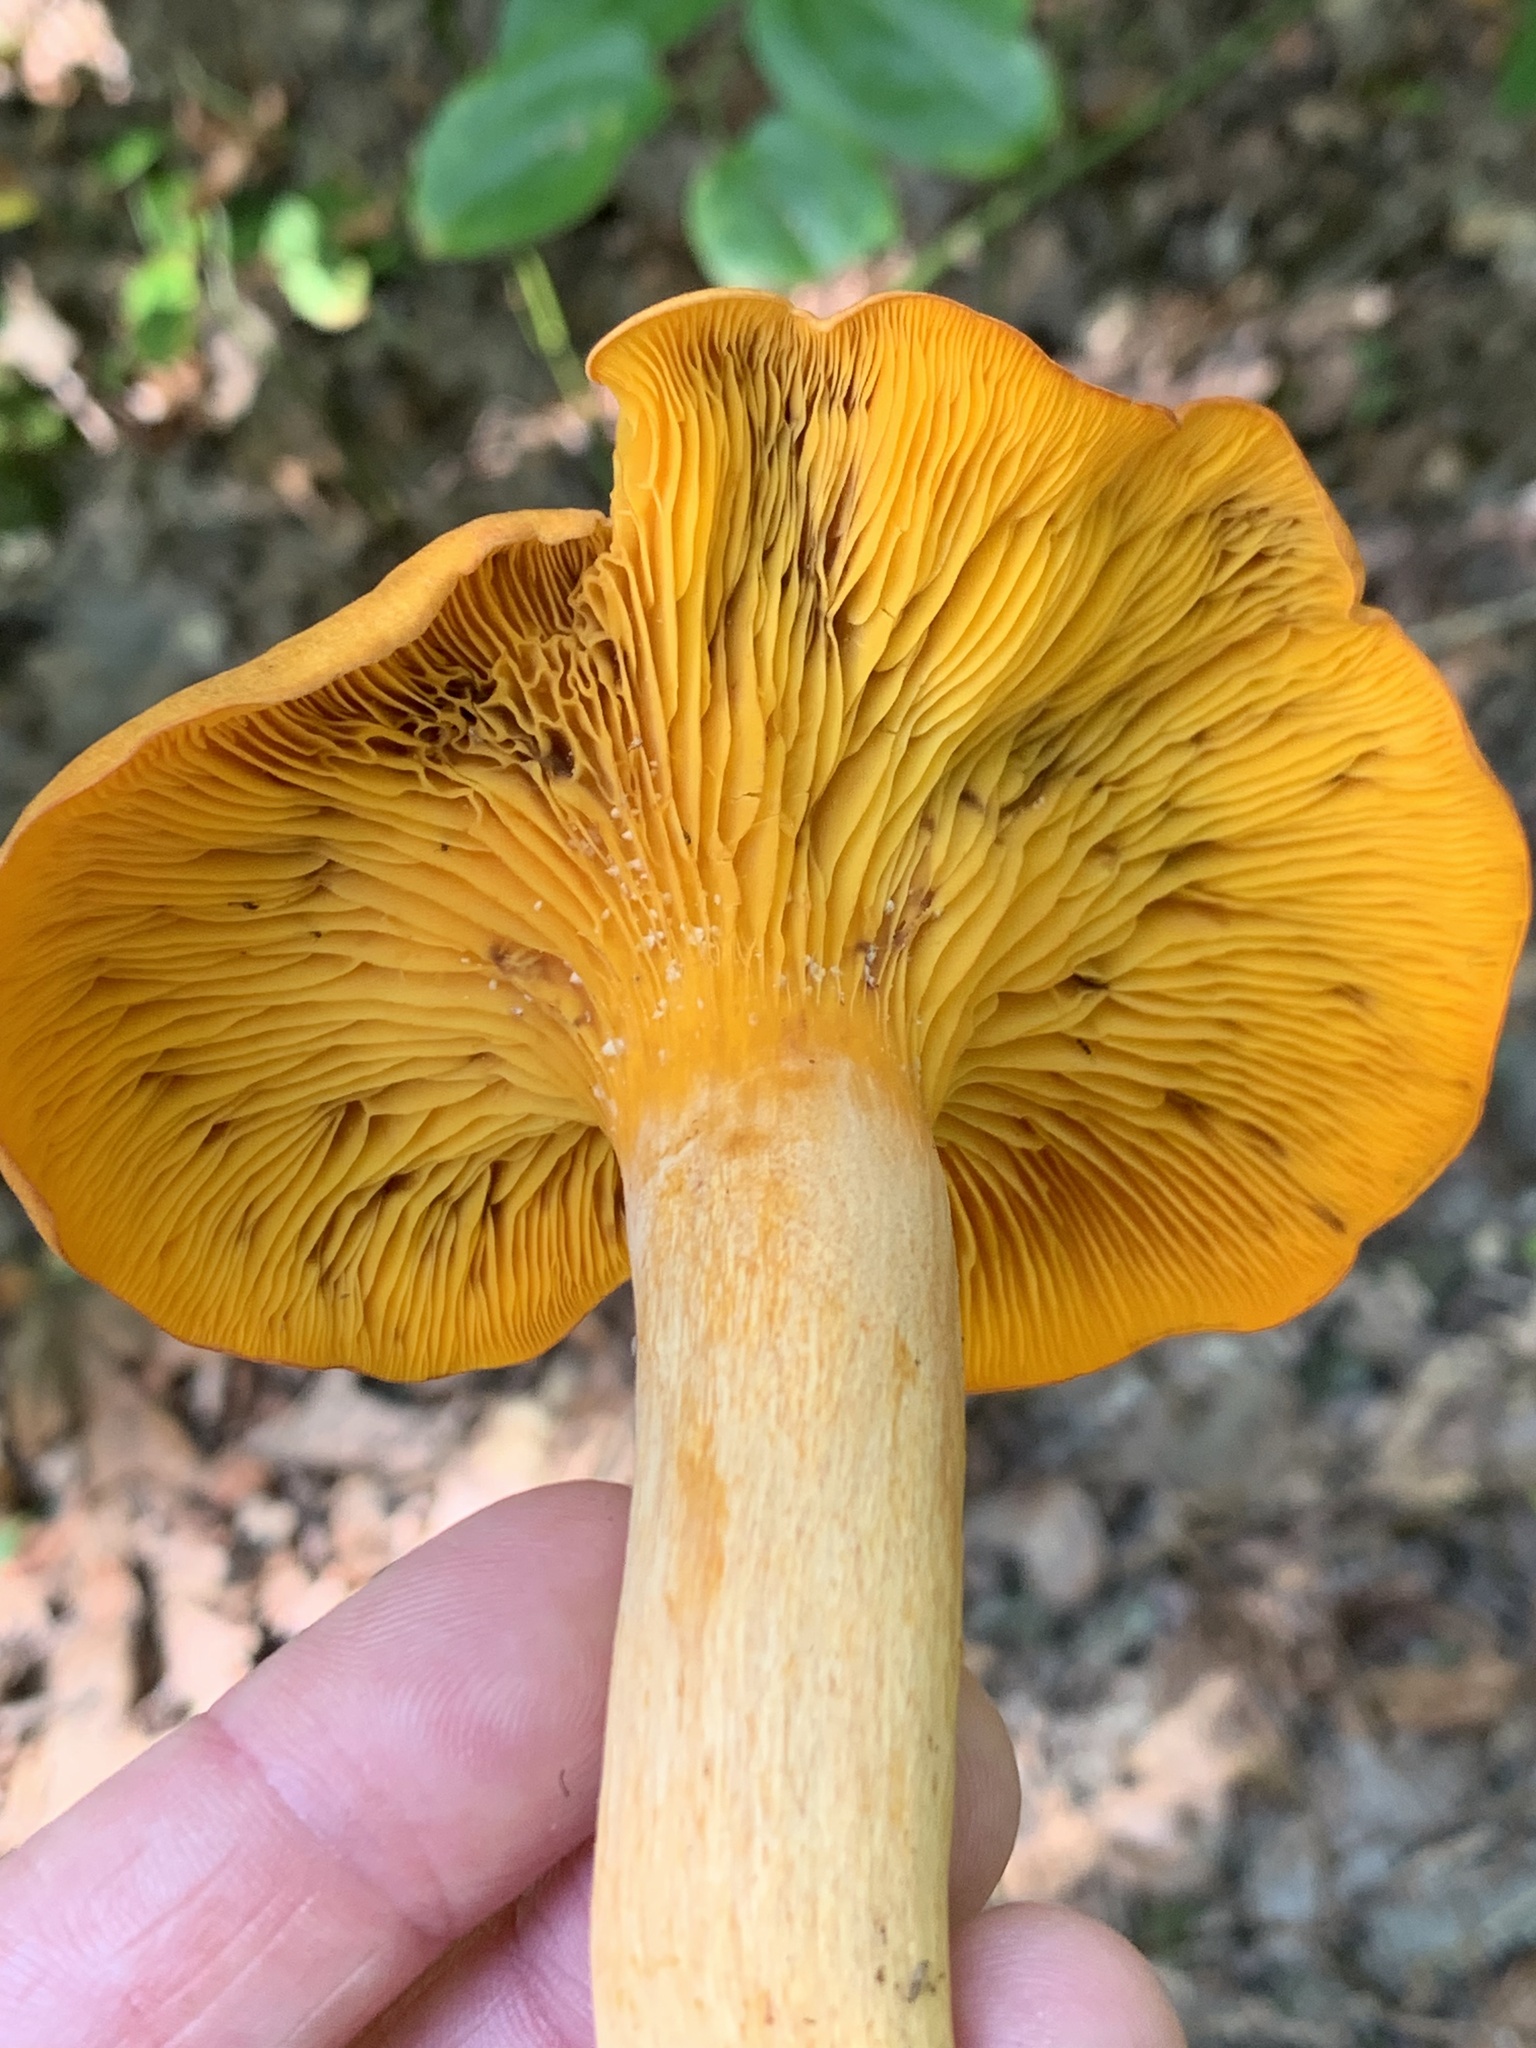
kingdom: Fungi
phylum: Basidiomycota
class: Agaricomycetes
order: Agaricales
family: Omphalotaceae
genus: Omphalotus
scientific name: Omphalotus illudens
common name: Jack o lantern
